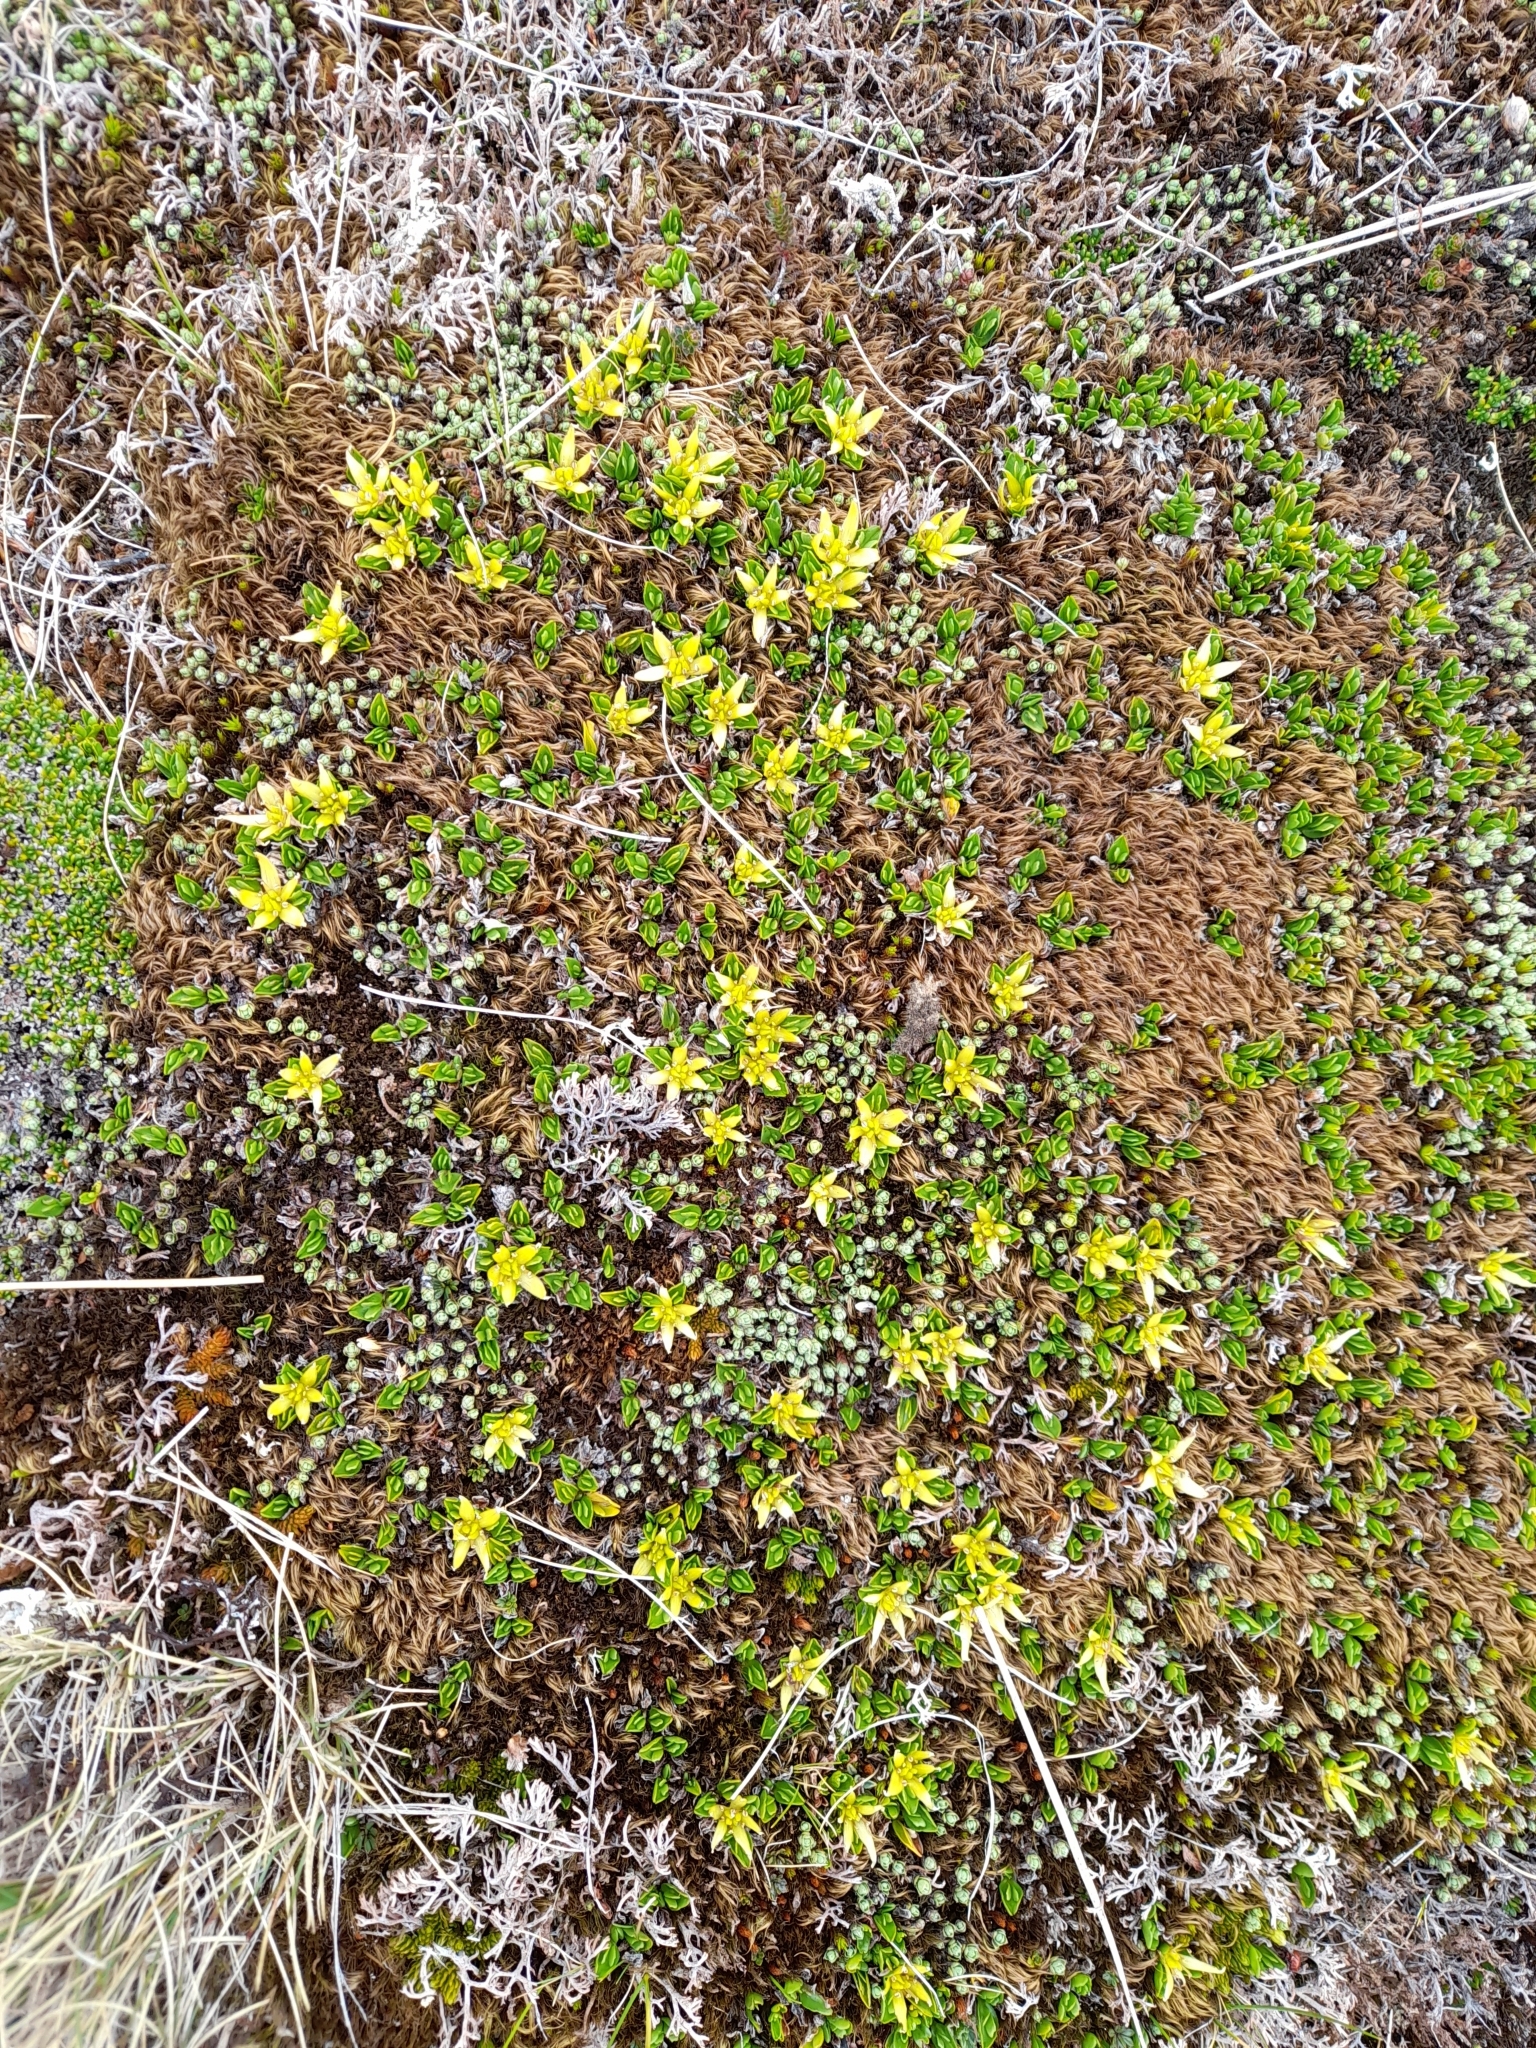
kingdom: Plantae
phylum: Tracheophyta
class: Magnoliopsida
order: Ranunculales
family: Ranunculaceae
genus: Caltha
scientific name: Caltha appendiculata
